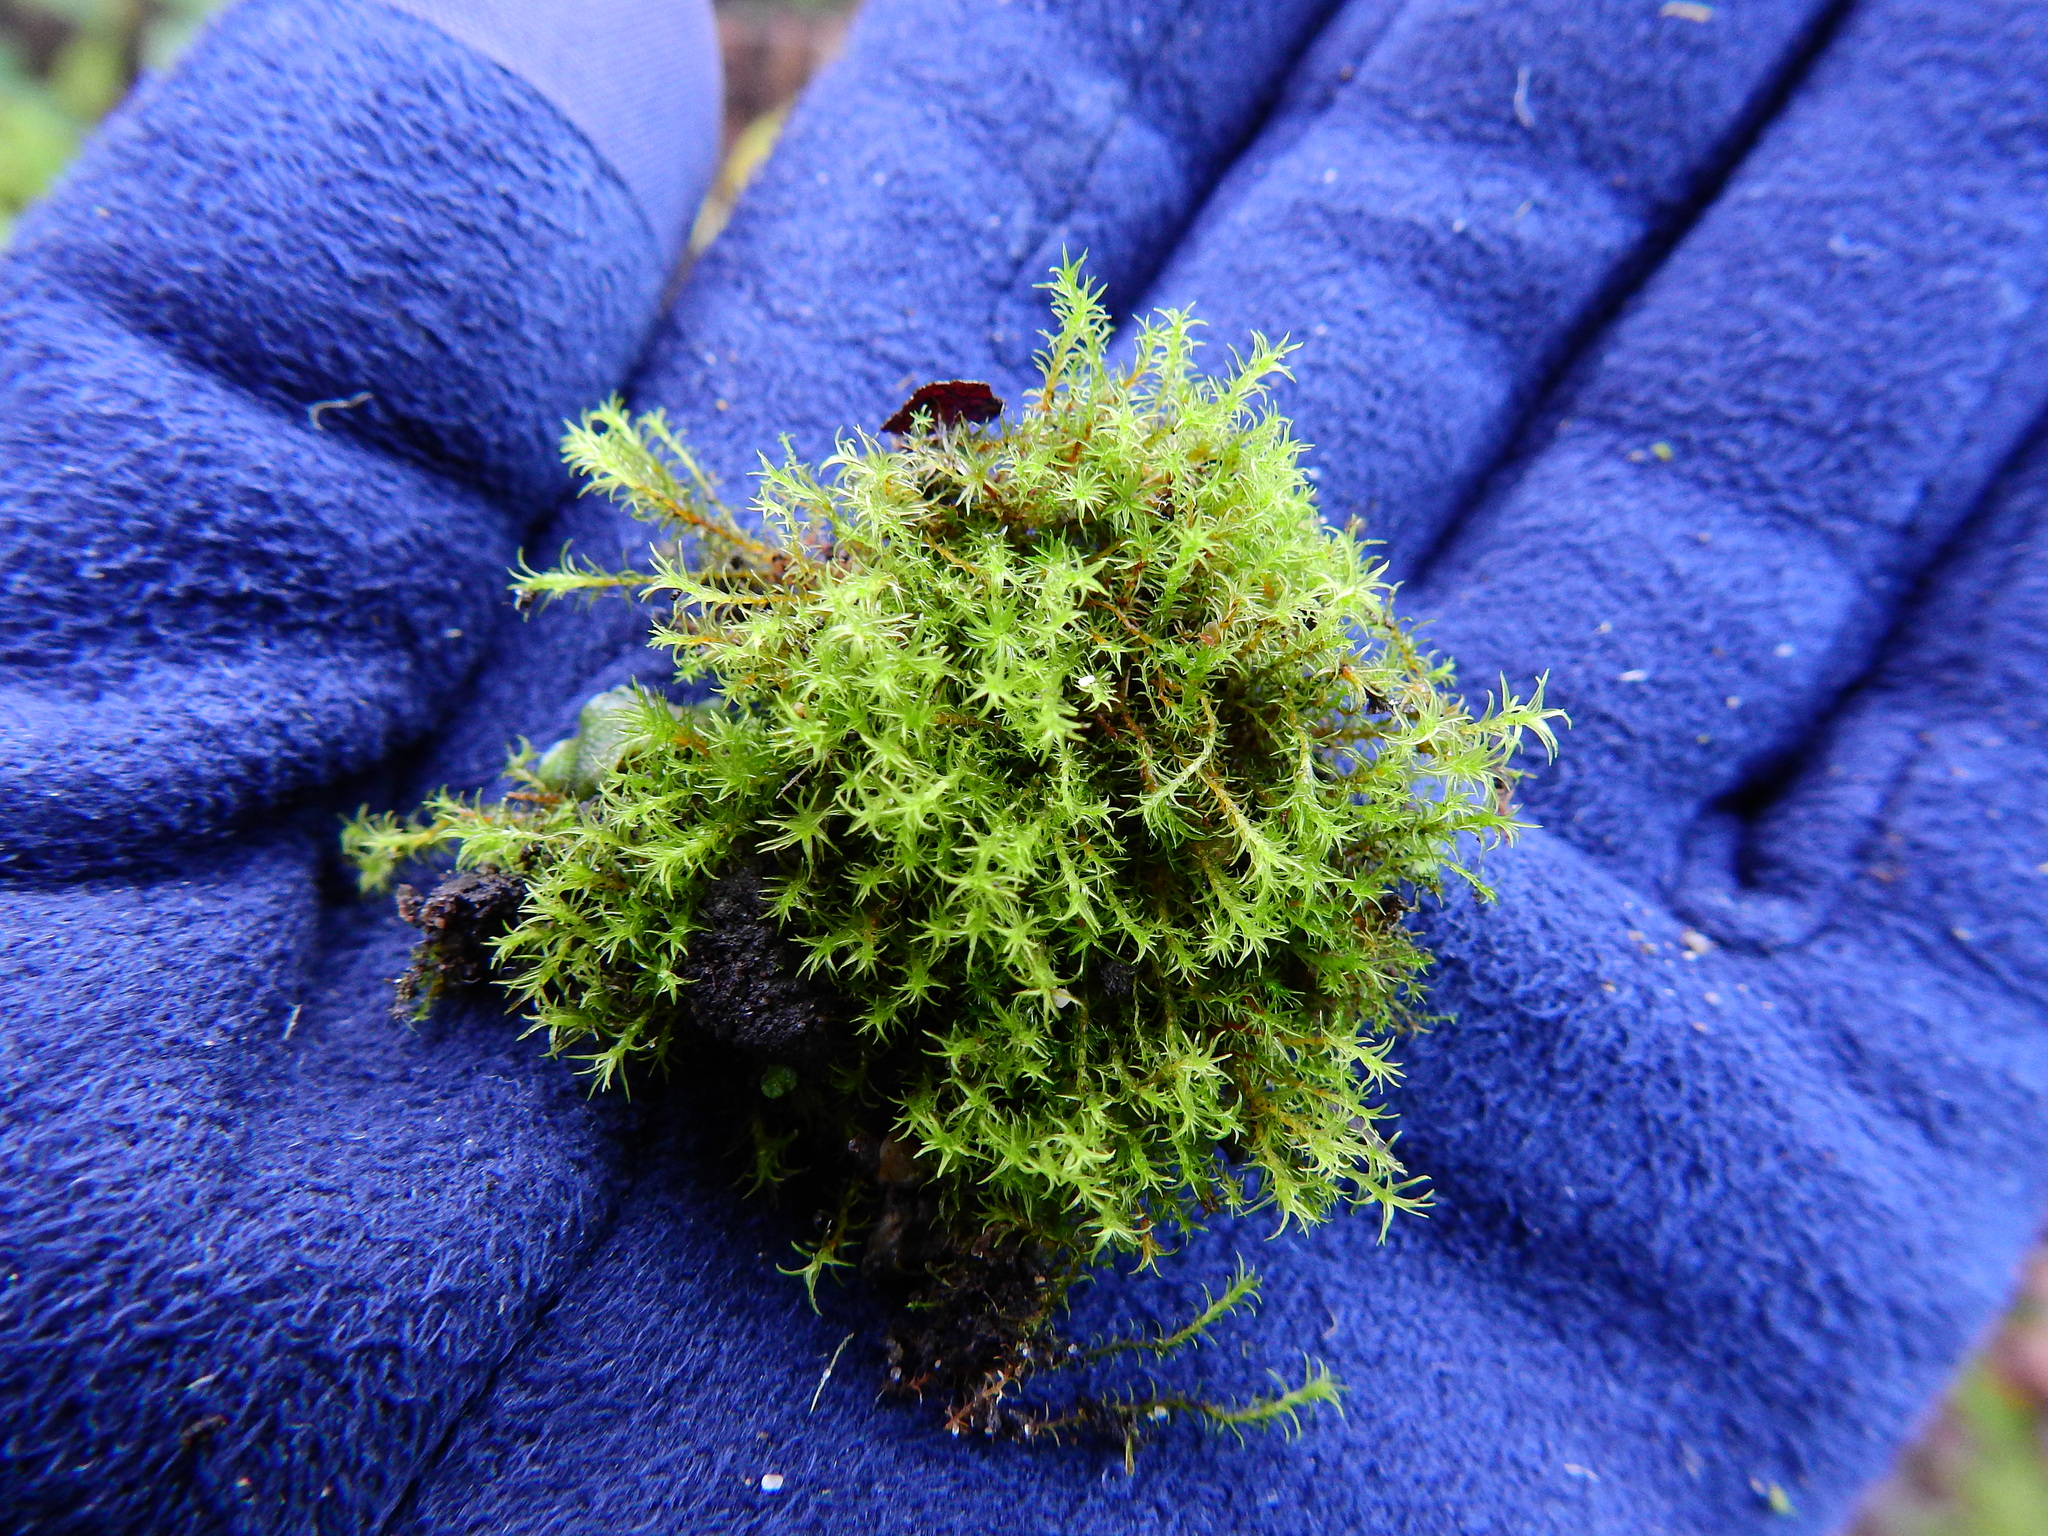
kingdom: Plantae
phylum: Bryophyta
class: Bryopsida
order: Pottiales
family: Pottiaceae
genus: Vinealobryum
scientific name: Vinealobryum insulanum
